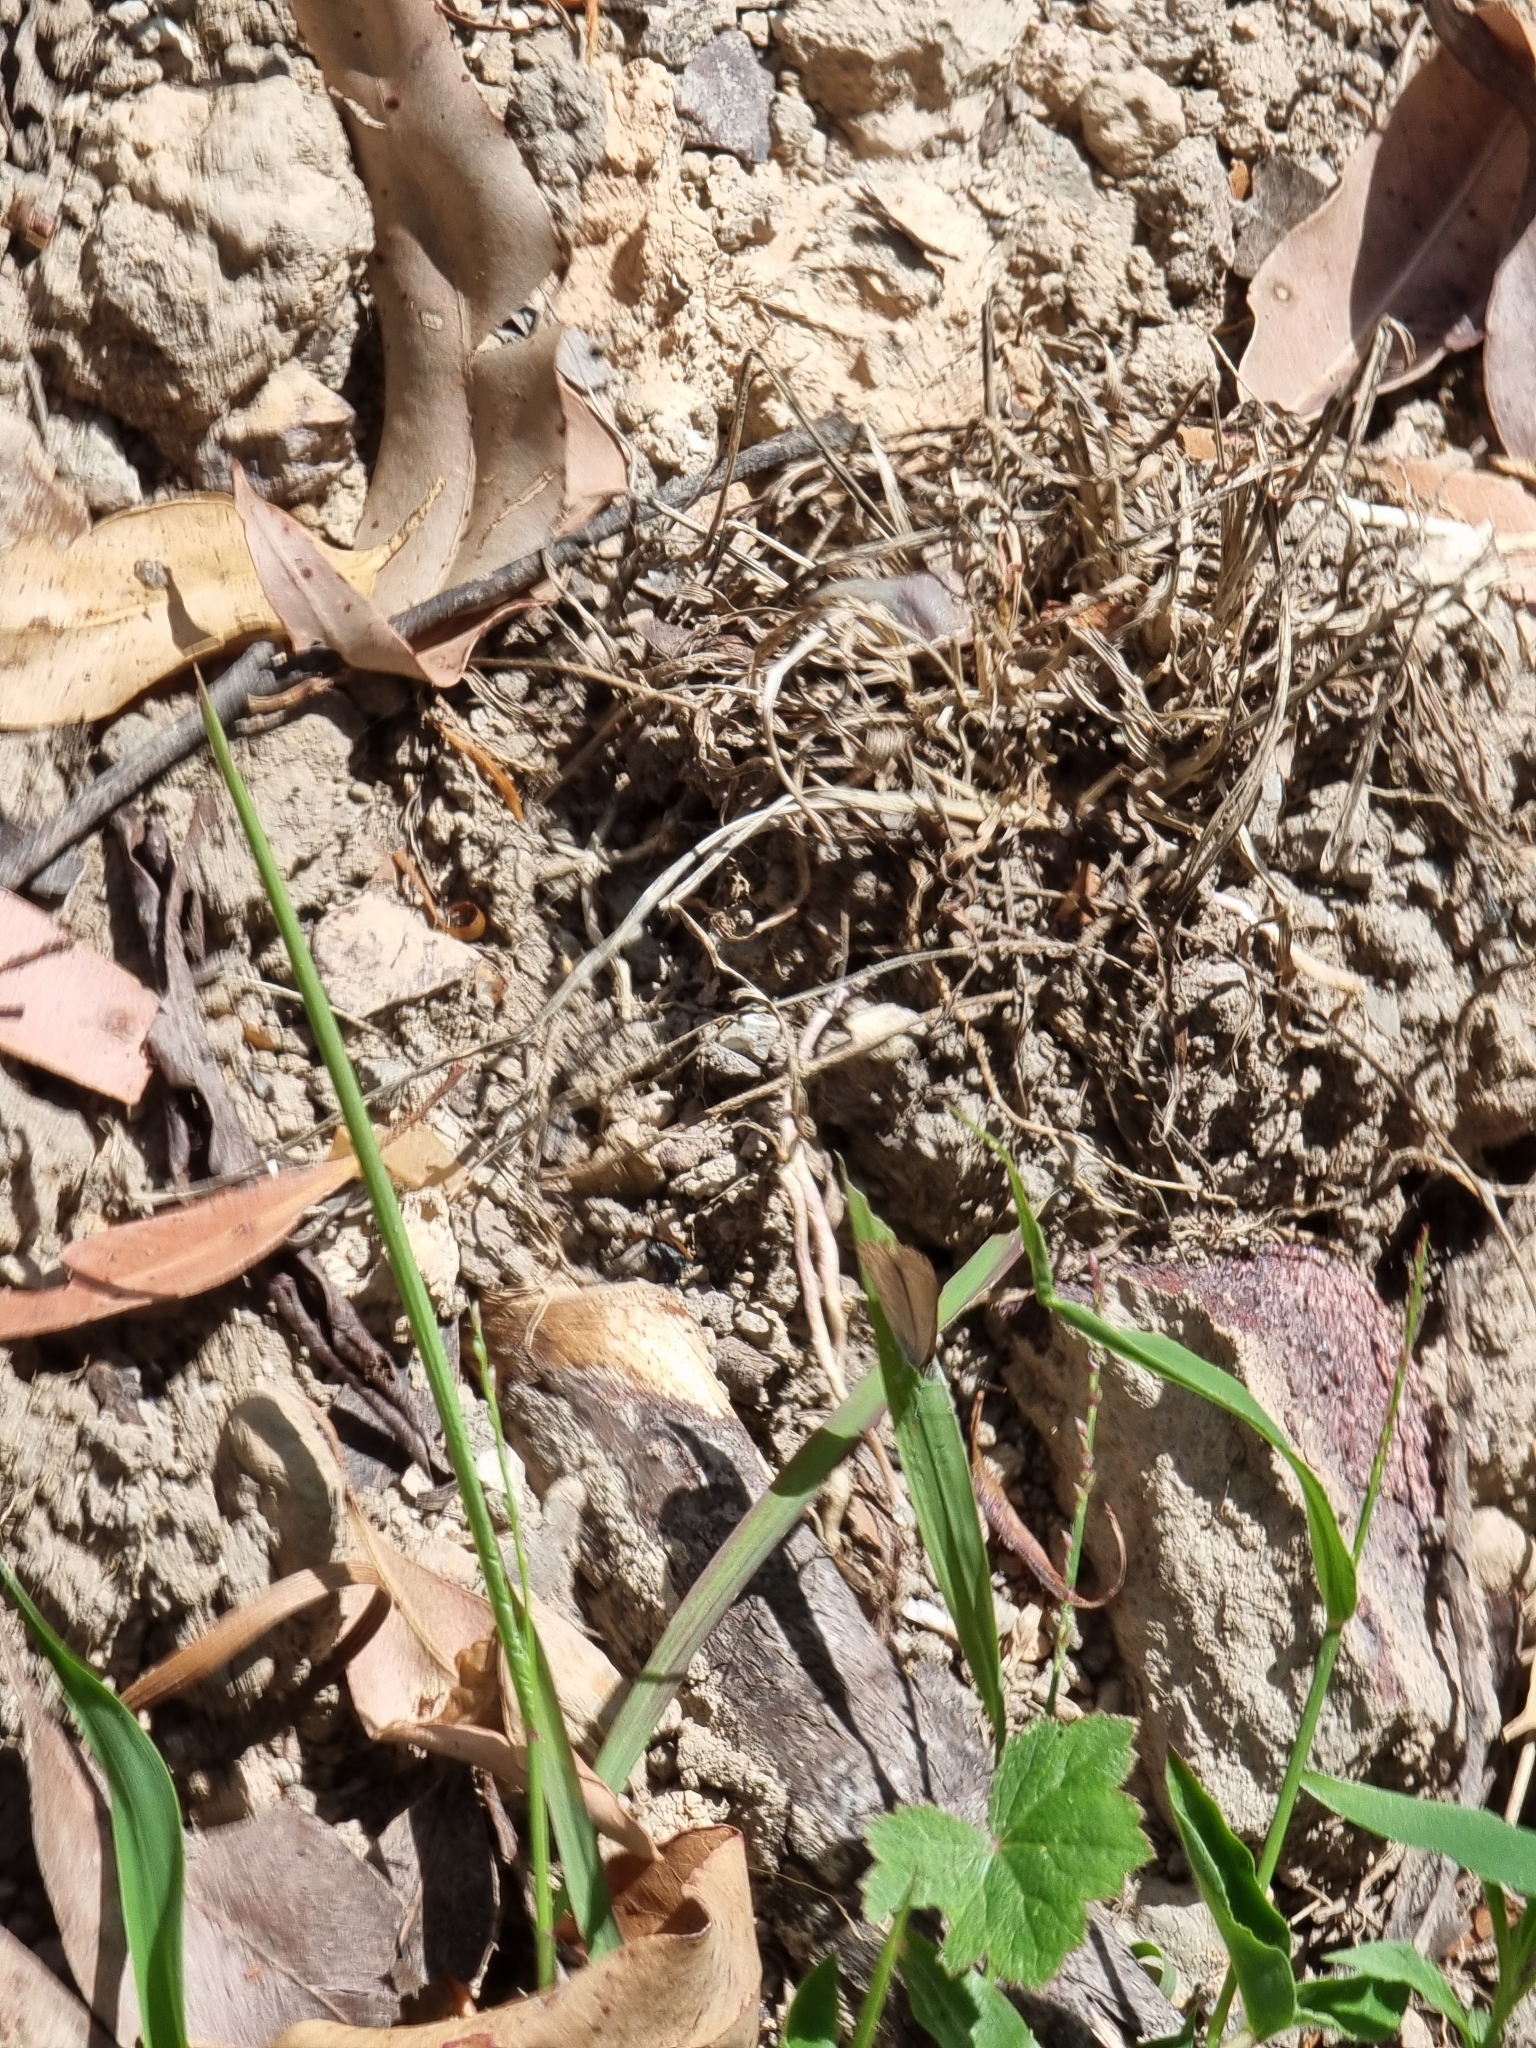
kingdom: Animalia
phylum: Arthropoda
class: Insecta
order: Lepidoptera
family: Lycaenidae
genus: Zizina
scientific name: Zizina labradus
